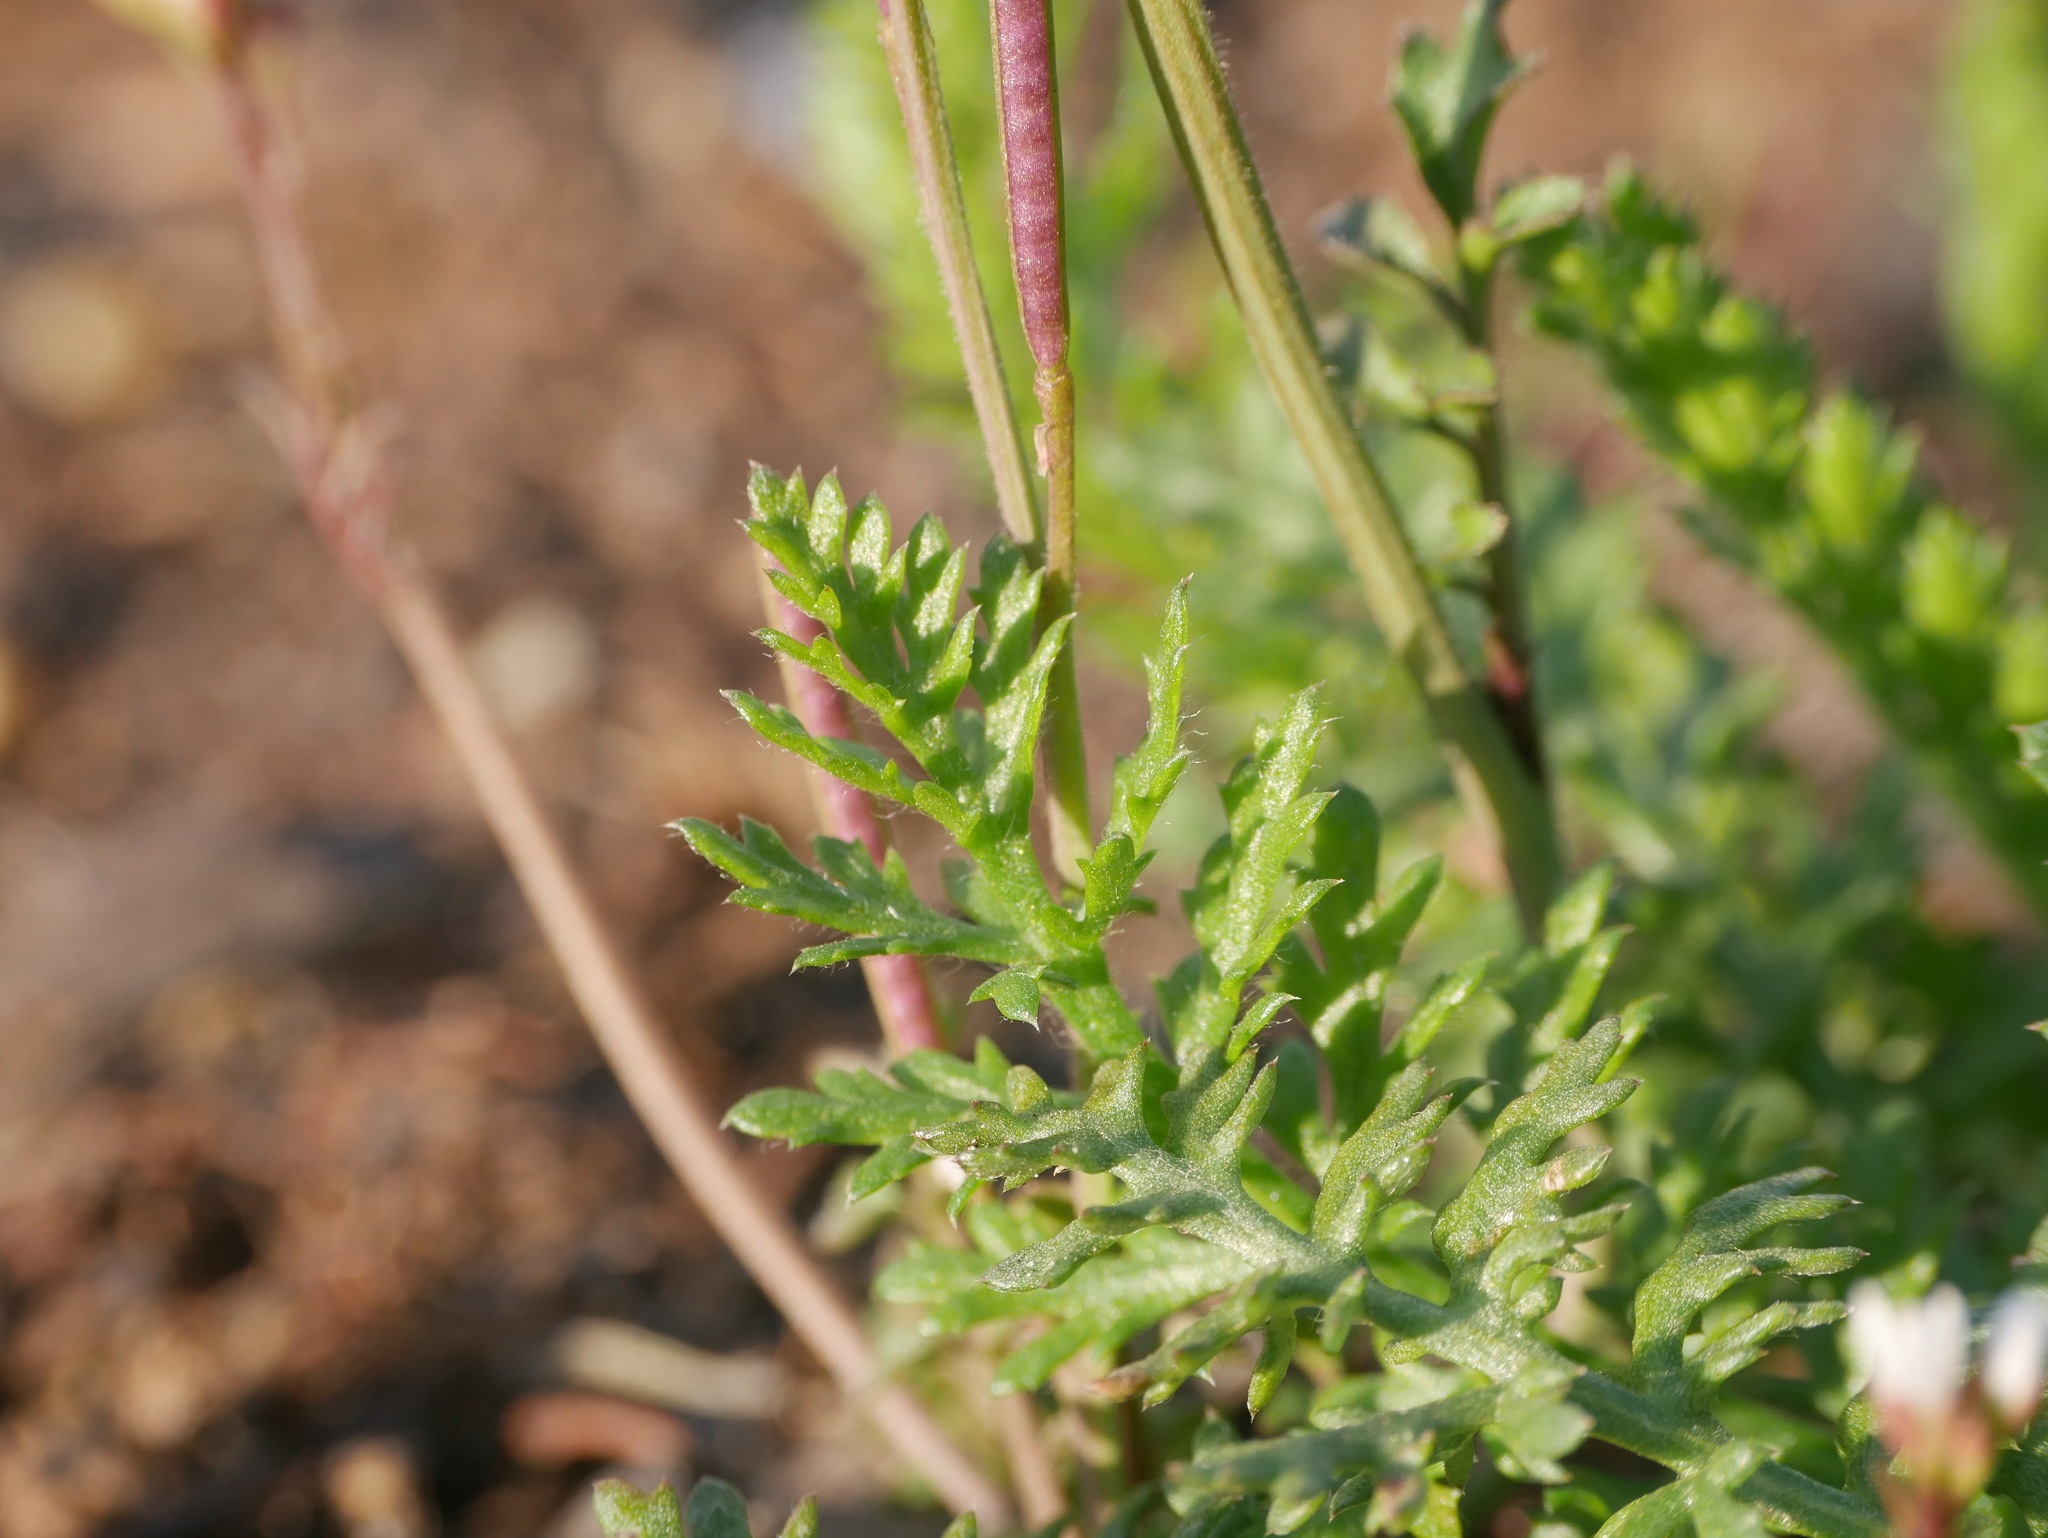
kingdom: Plantae
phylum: Tracheophyta
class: Magnoliopsida
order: Asterales
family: Asteraceae
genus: Achillea
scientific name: Achillea millefolium
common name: Yarrow
